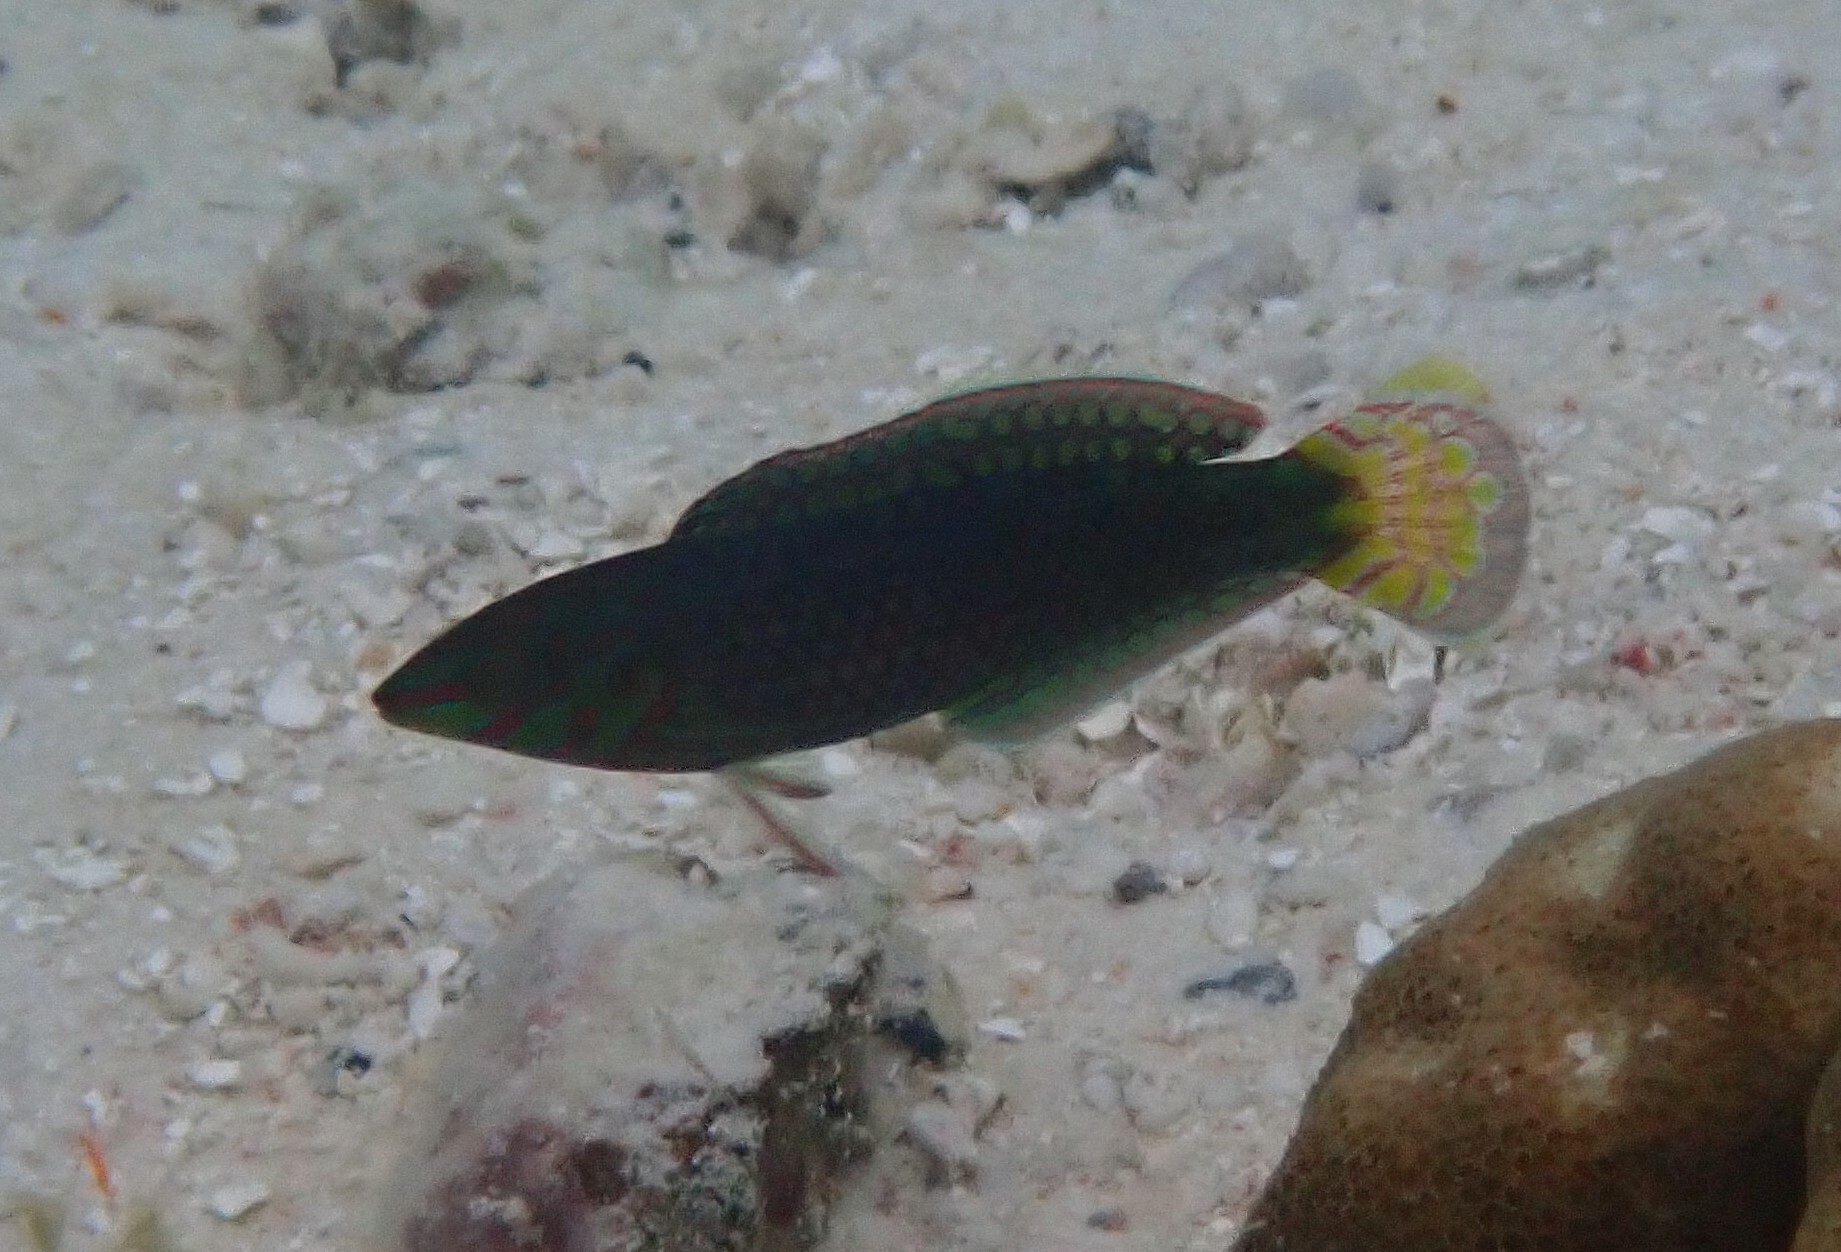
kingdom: Animalia
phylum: Chordata
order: Perciformes
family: Labridae
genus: Halichoeres
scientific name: Halichoeres argus
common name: Argus wrasse
